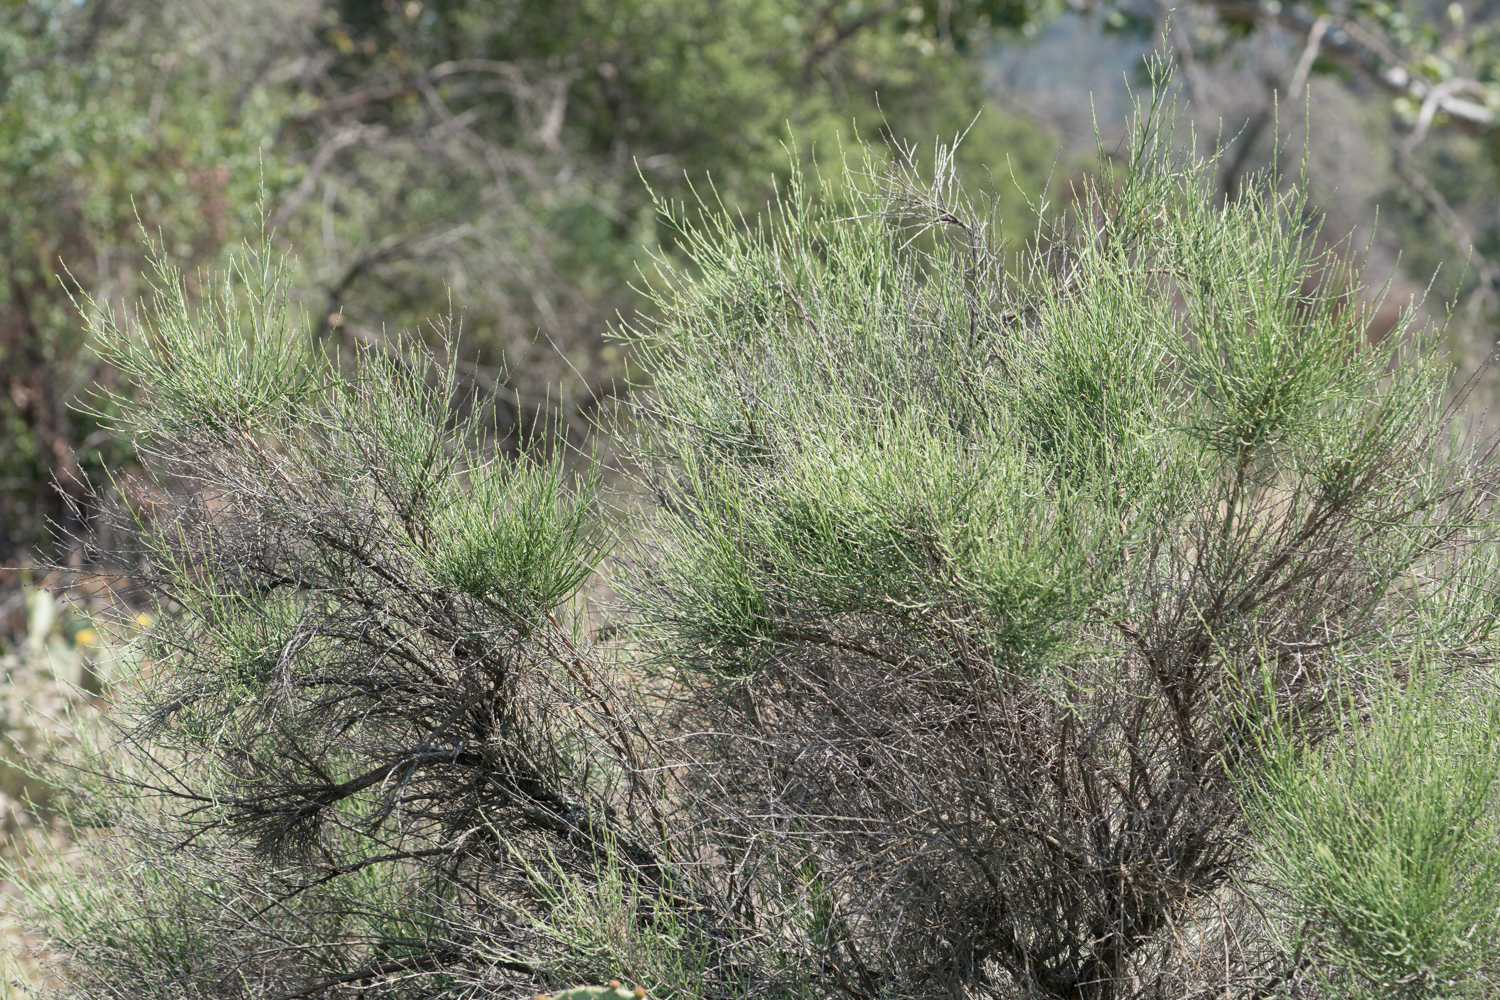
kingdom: Plantae
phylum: Tracheophyta
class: Magnoliopsida
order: Asterales
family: Asteraceae
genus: Lepidospartum
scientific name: Lepidospartum squamatum
